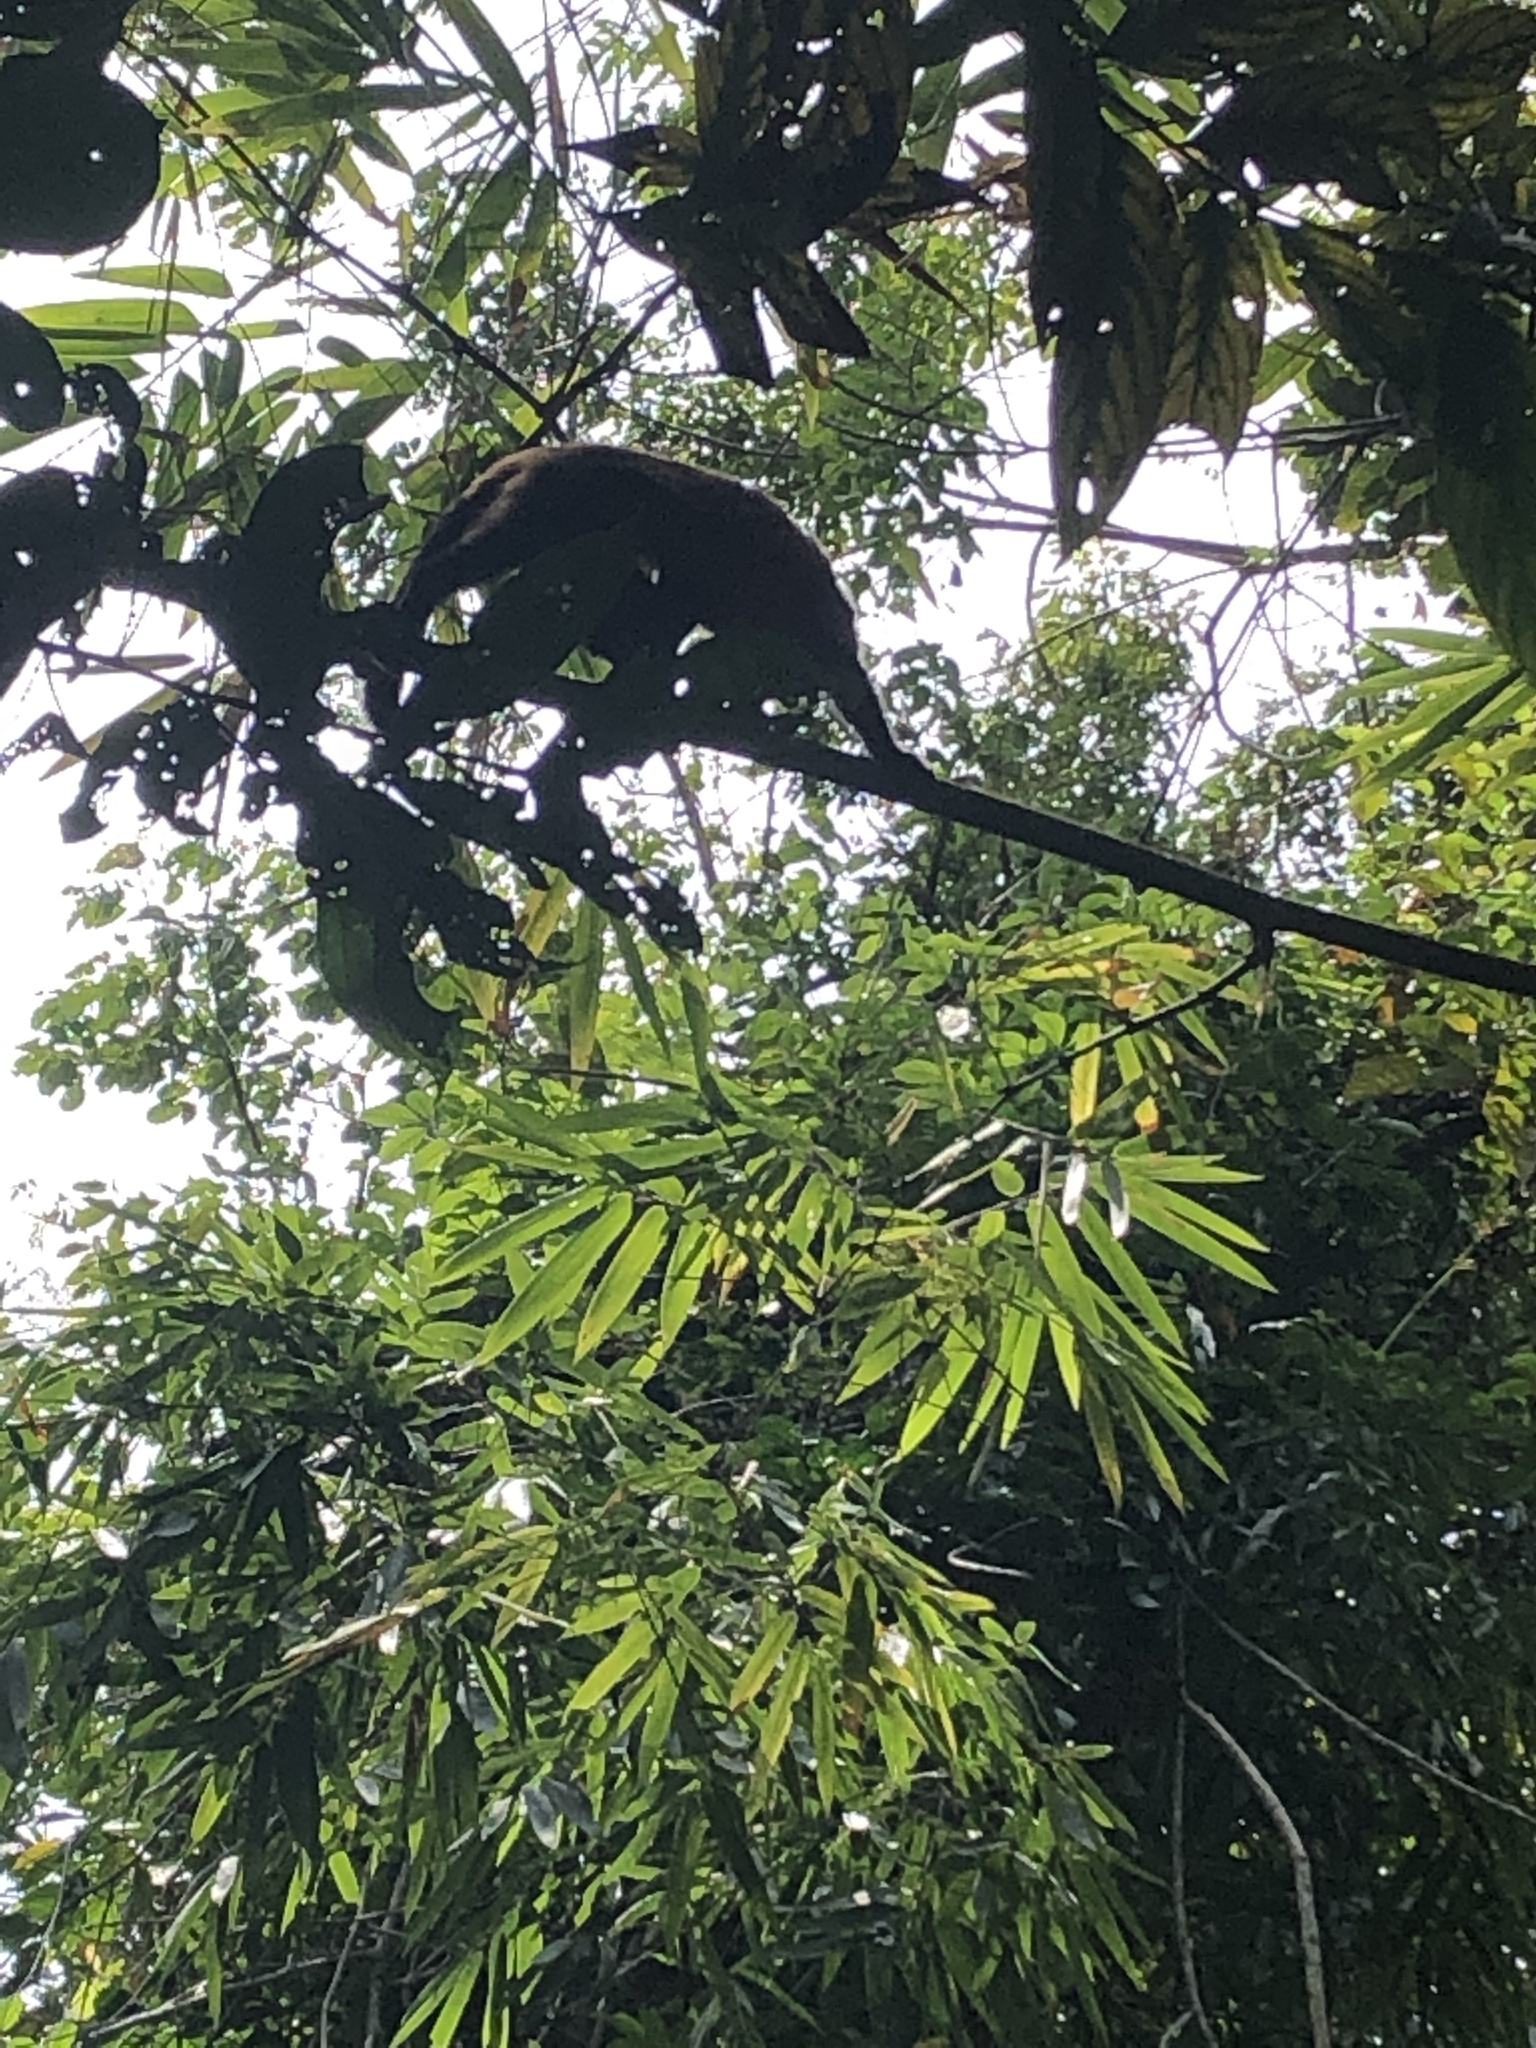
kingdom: Animalia
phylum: Chordata
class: Mammalia
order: Primates
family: Cebidae
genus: Sapajus
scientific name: Sapajus apella
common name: Tufted capuchin
